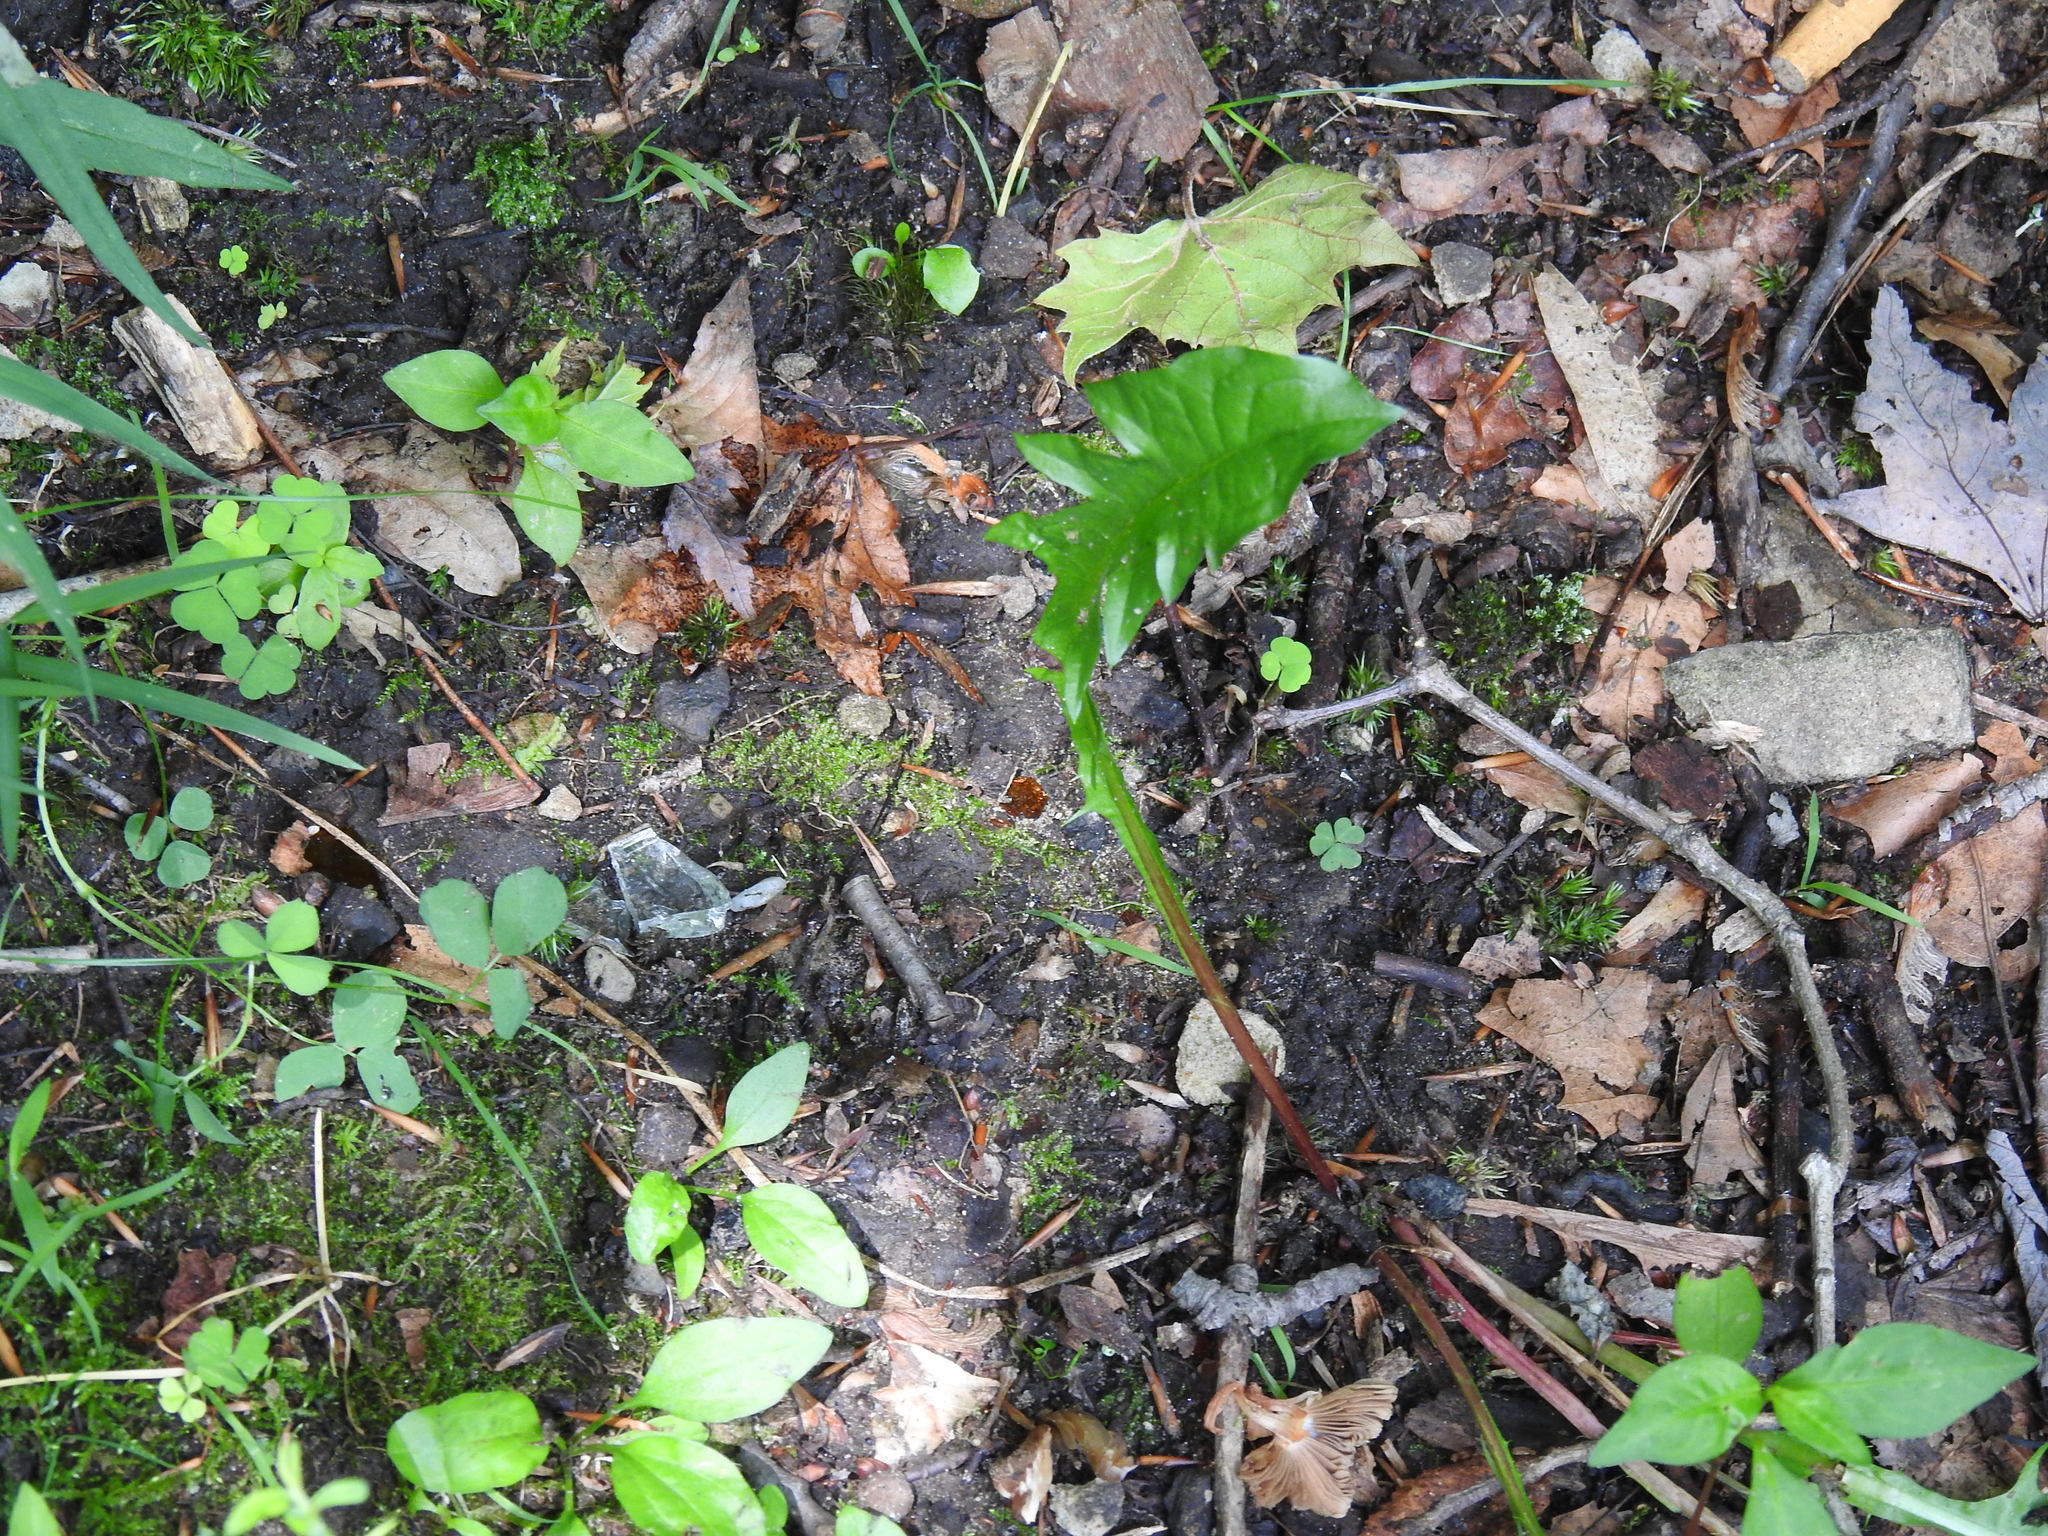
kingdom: Plantae
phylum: Tracheophyta
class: Magnoliopsida
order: Asterales
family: Asteraceae
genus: Taraxacum
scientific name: Taraxacum officinale
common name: Common dandelion
